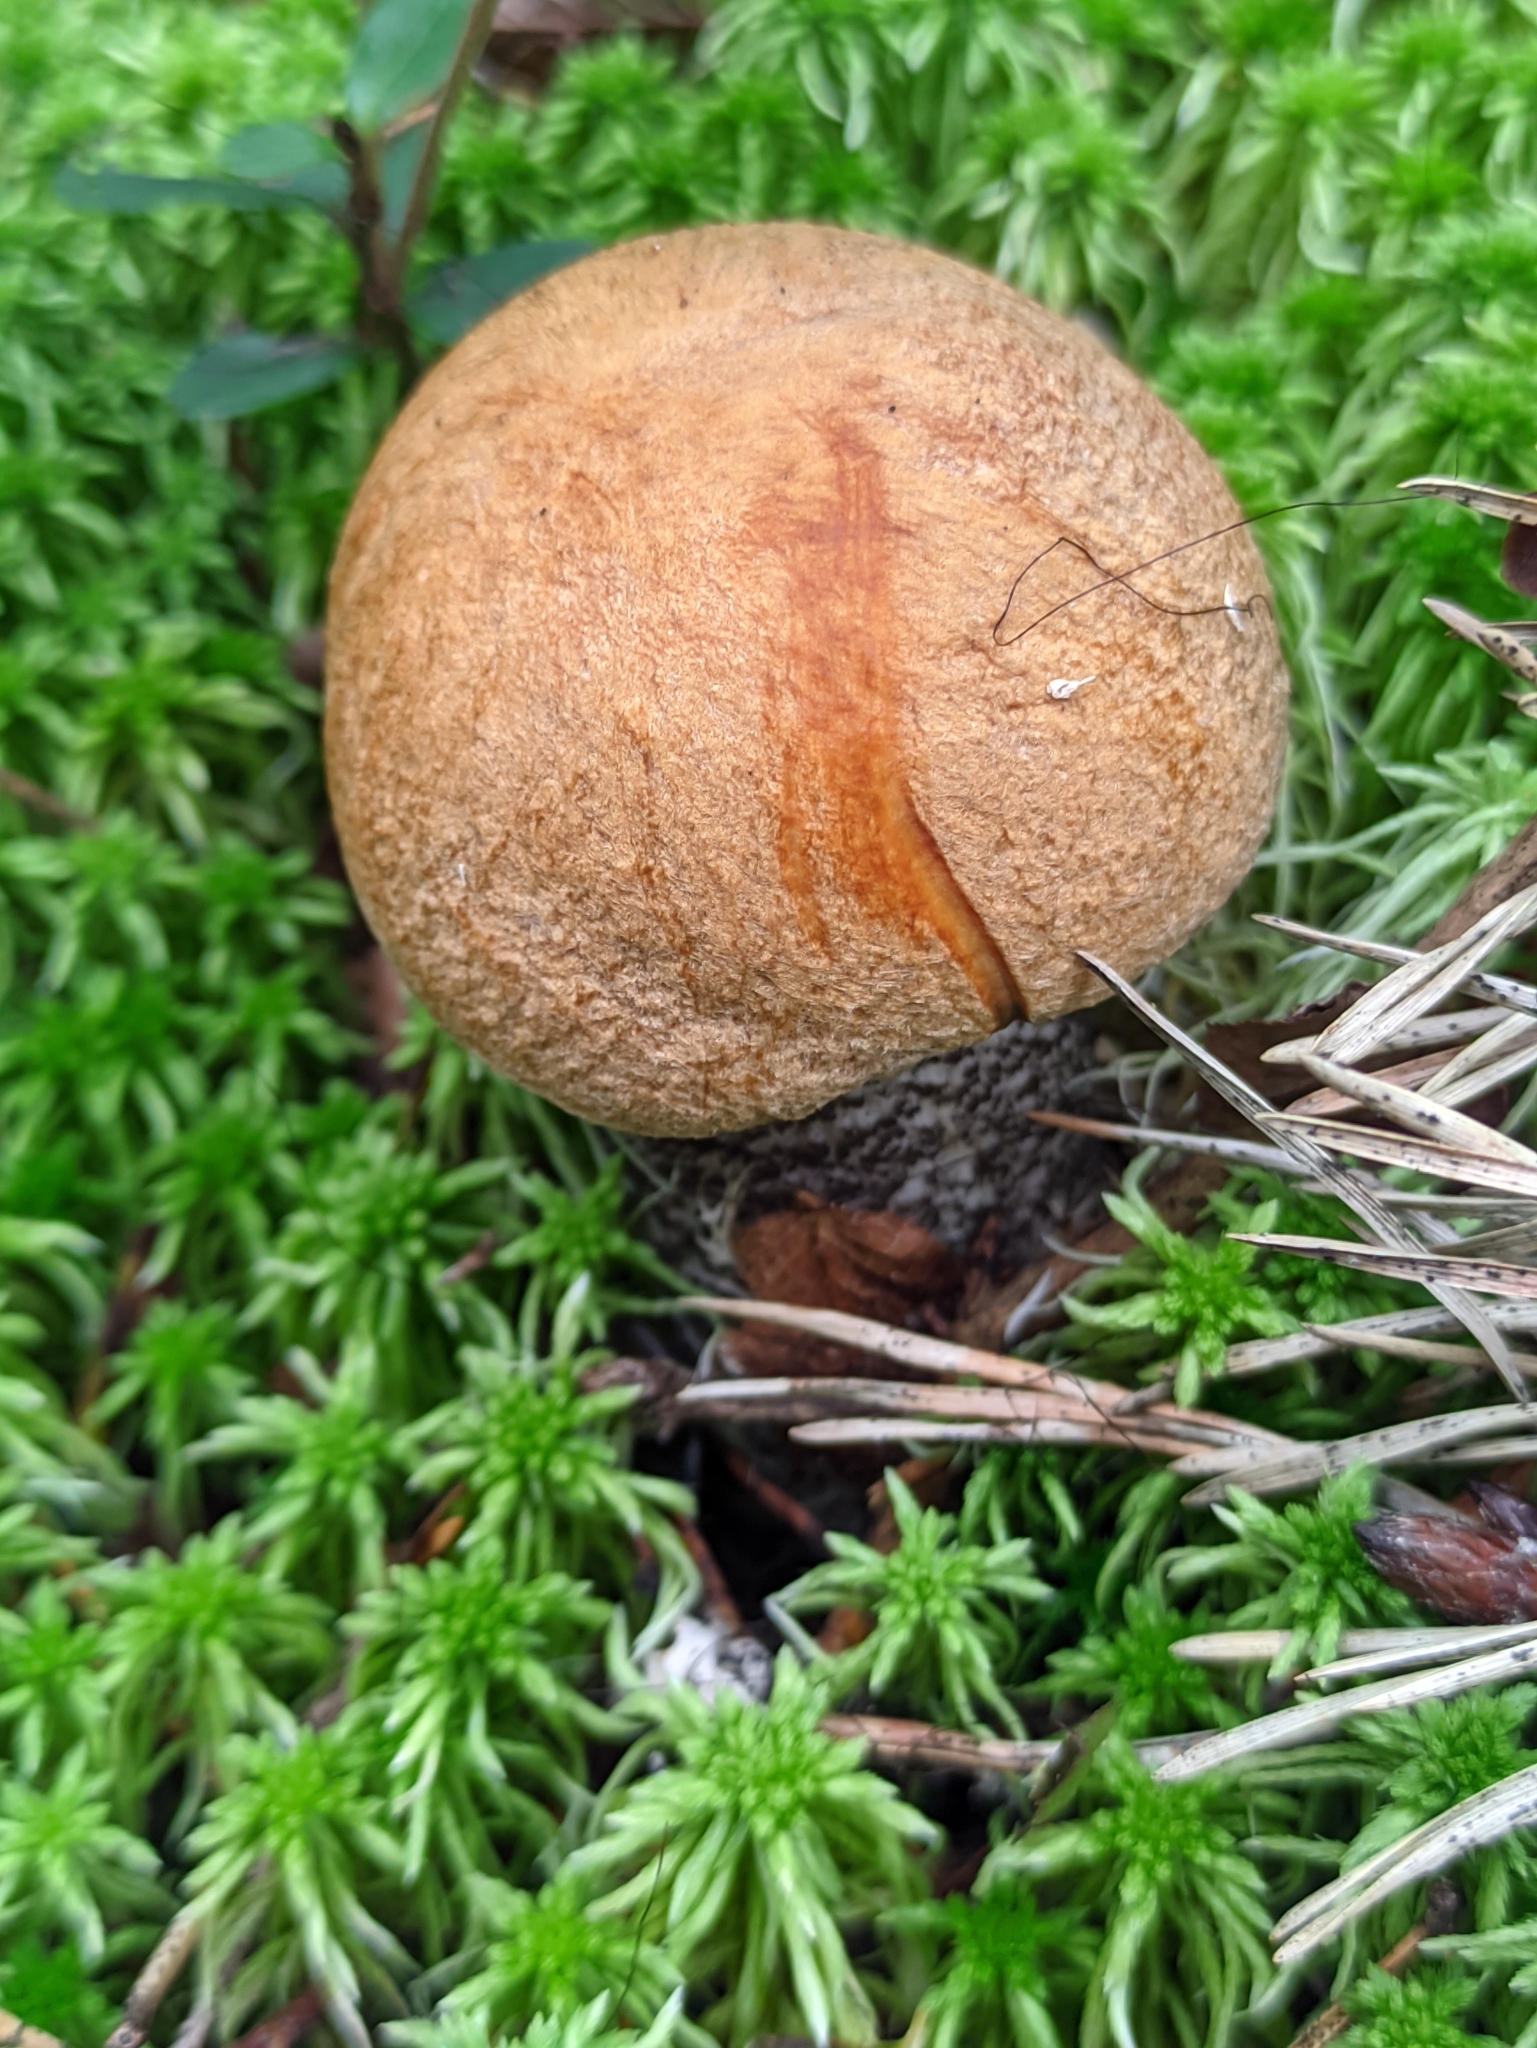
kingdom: Fungi
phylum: Basidiomycota
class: Agaricomycetes
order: Boletales
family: Boletaceae
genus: Leccinum
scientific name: Leccinum versipelle
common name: Orange birch bolete
